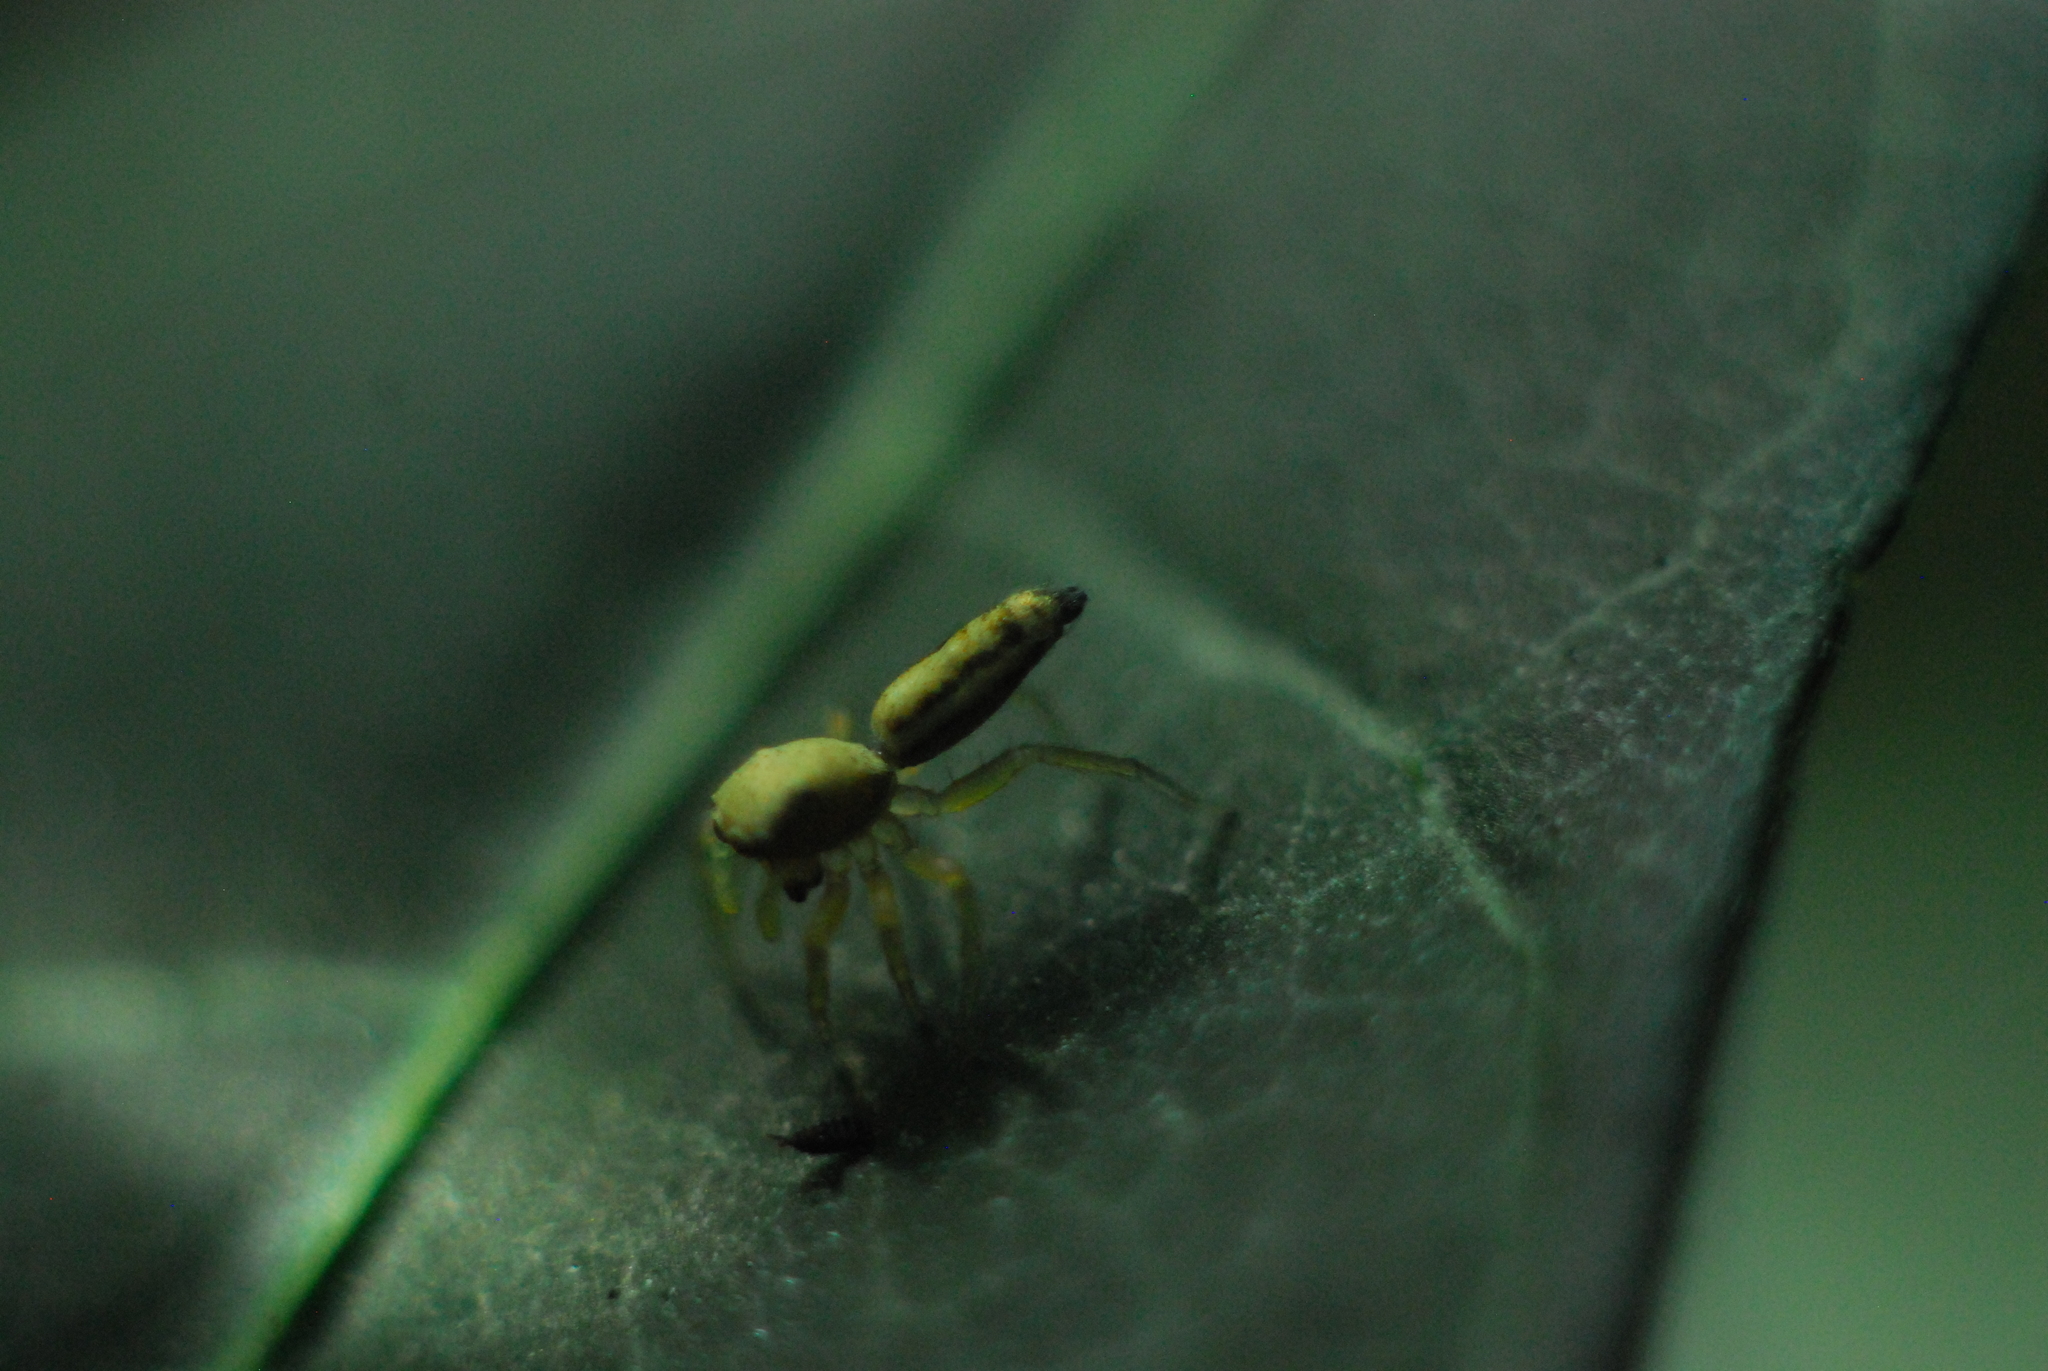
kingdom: Animalia
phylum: Arthropoda
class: Arachnida
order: Araneae
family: Salticidae
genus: Cosmophasis
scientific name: Cosmophasis lami
